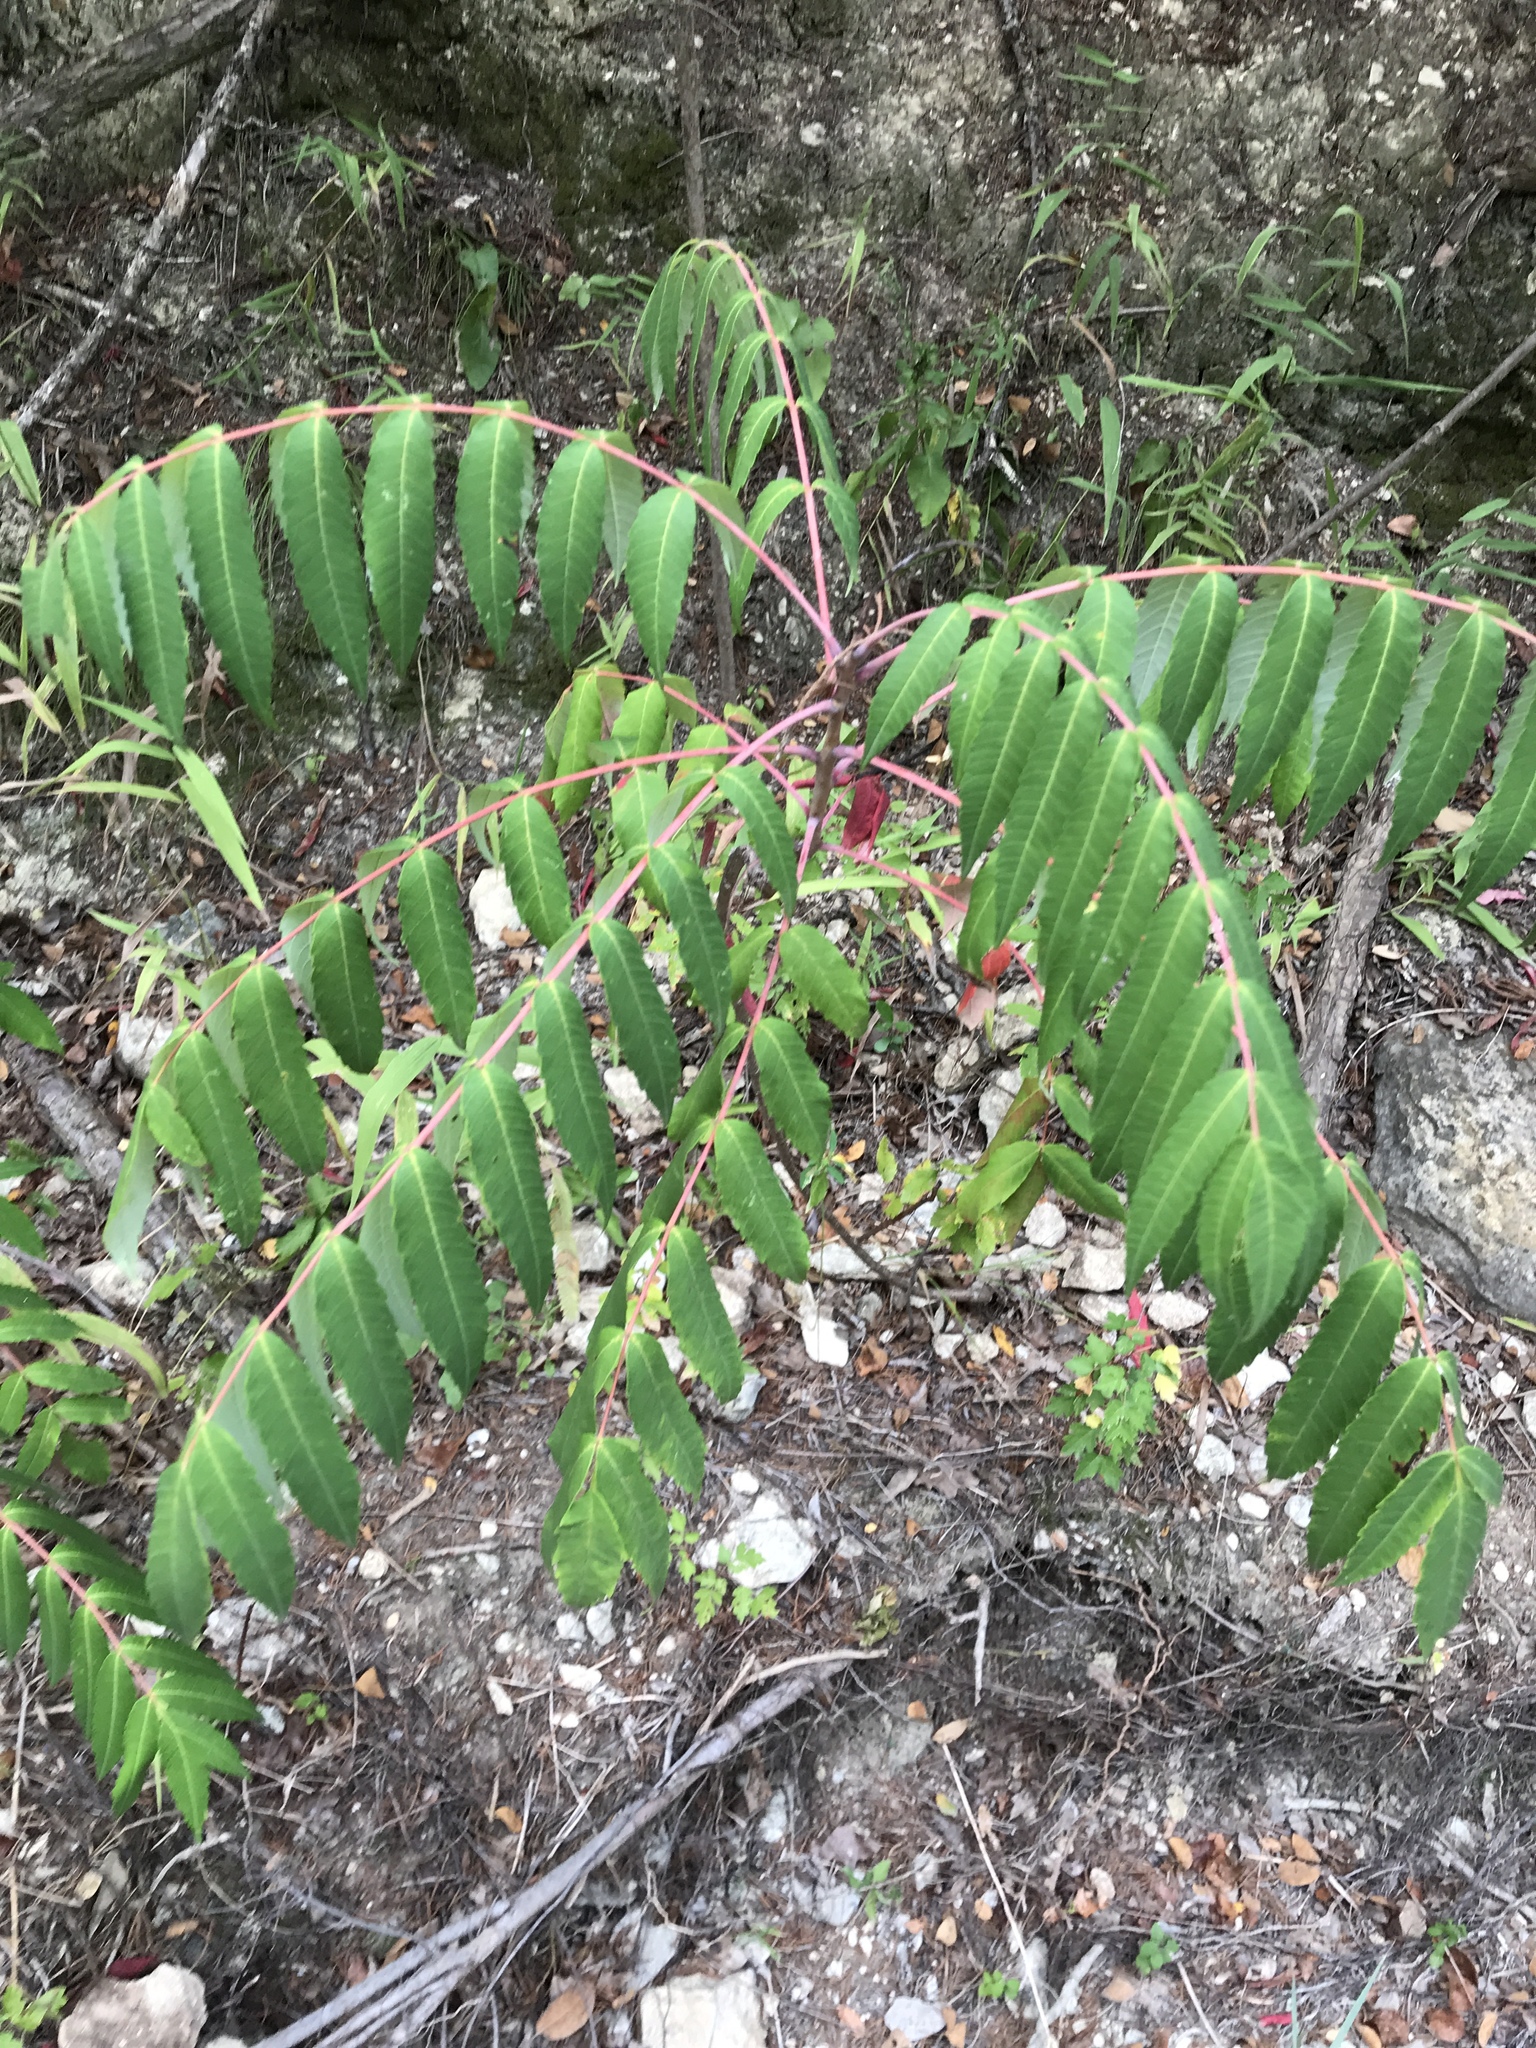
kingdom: Plantae
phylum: Tracheophyta
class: Magnoliopsida
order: Sapindales
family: Anacardiaceae
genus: Rhus
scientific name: Rhus glabra
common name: Scarlet sumac
